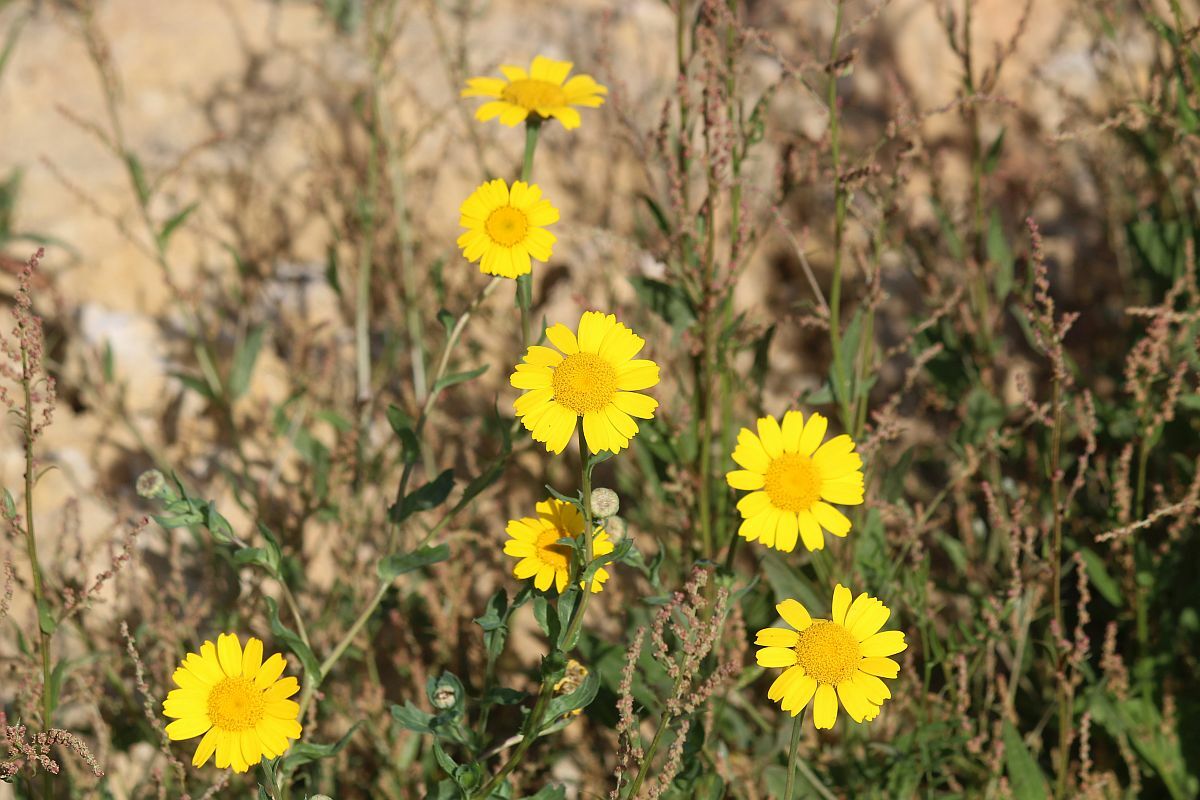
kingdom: Plantae
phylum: Tracheophyta
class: Magnoliopsida
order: Asterales
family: Asteraceae
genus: Glebionis
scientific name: Glebionis segetum
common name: Corndaisy
